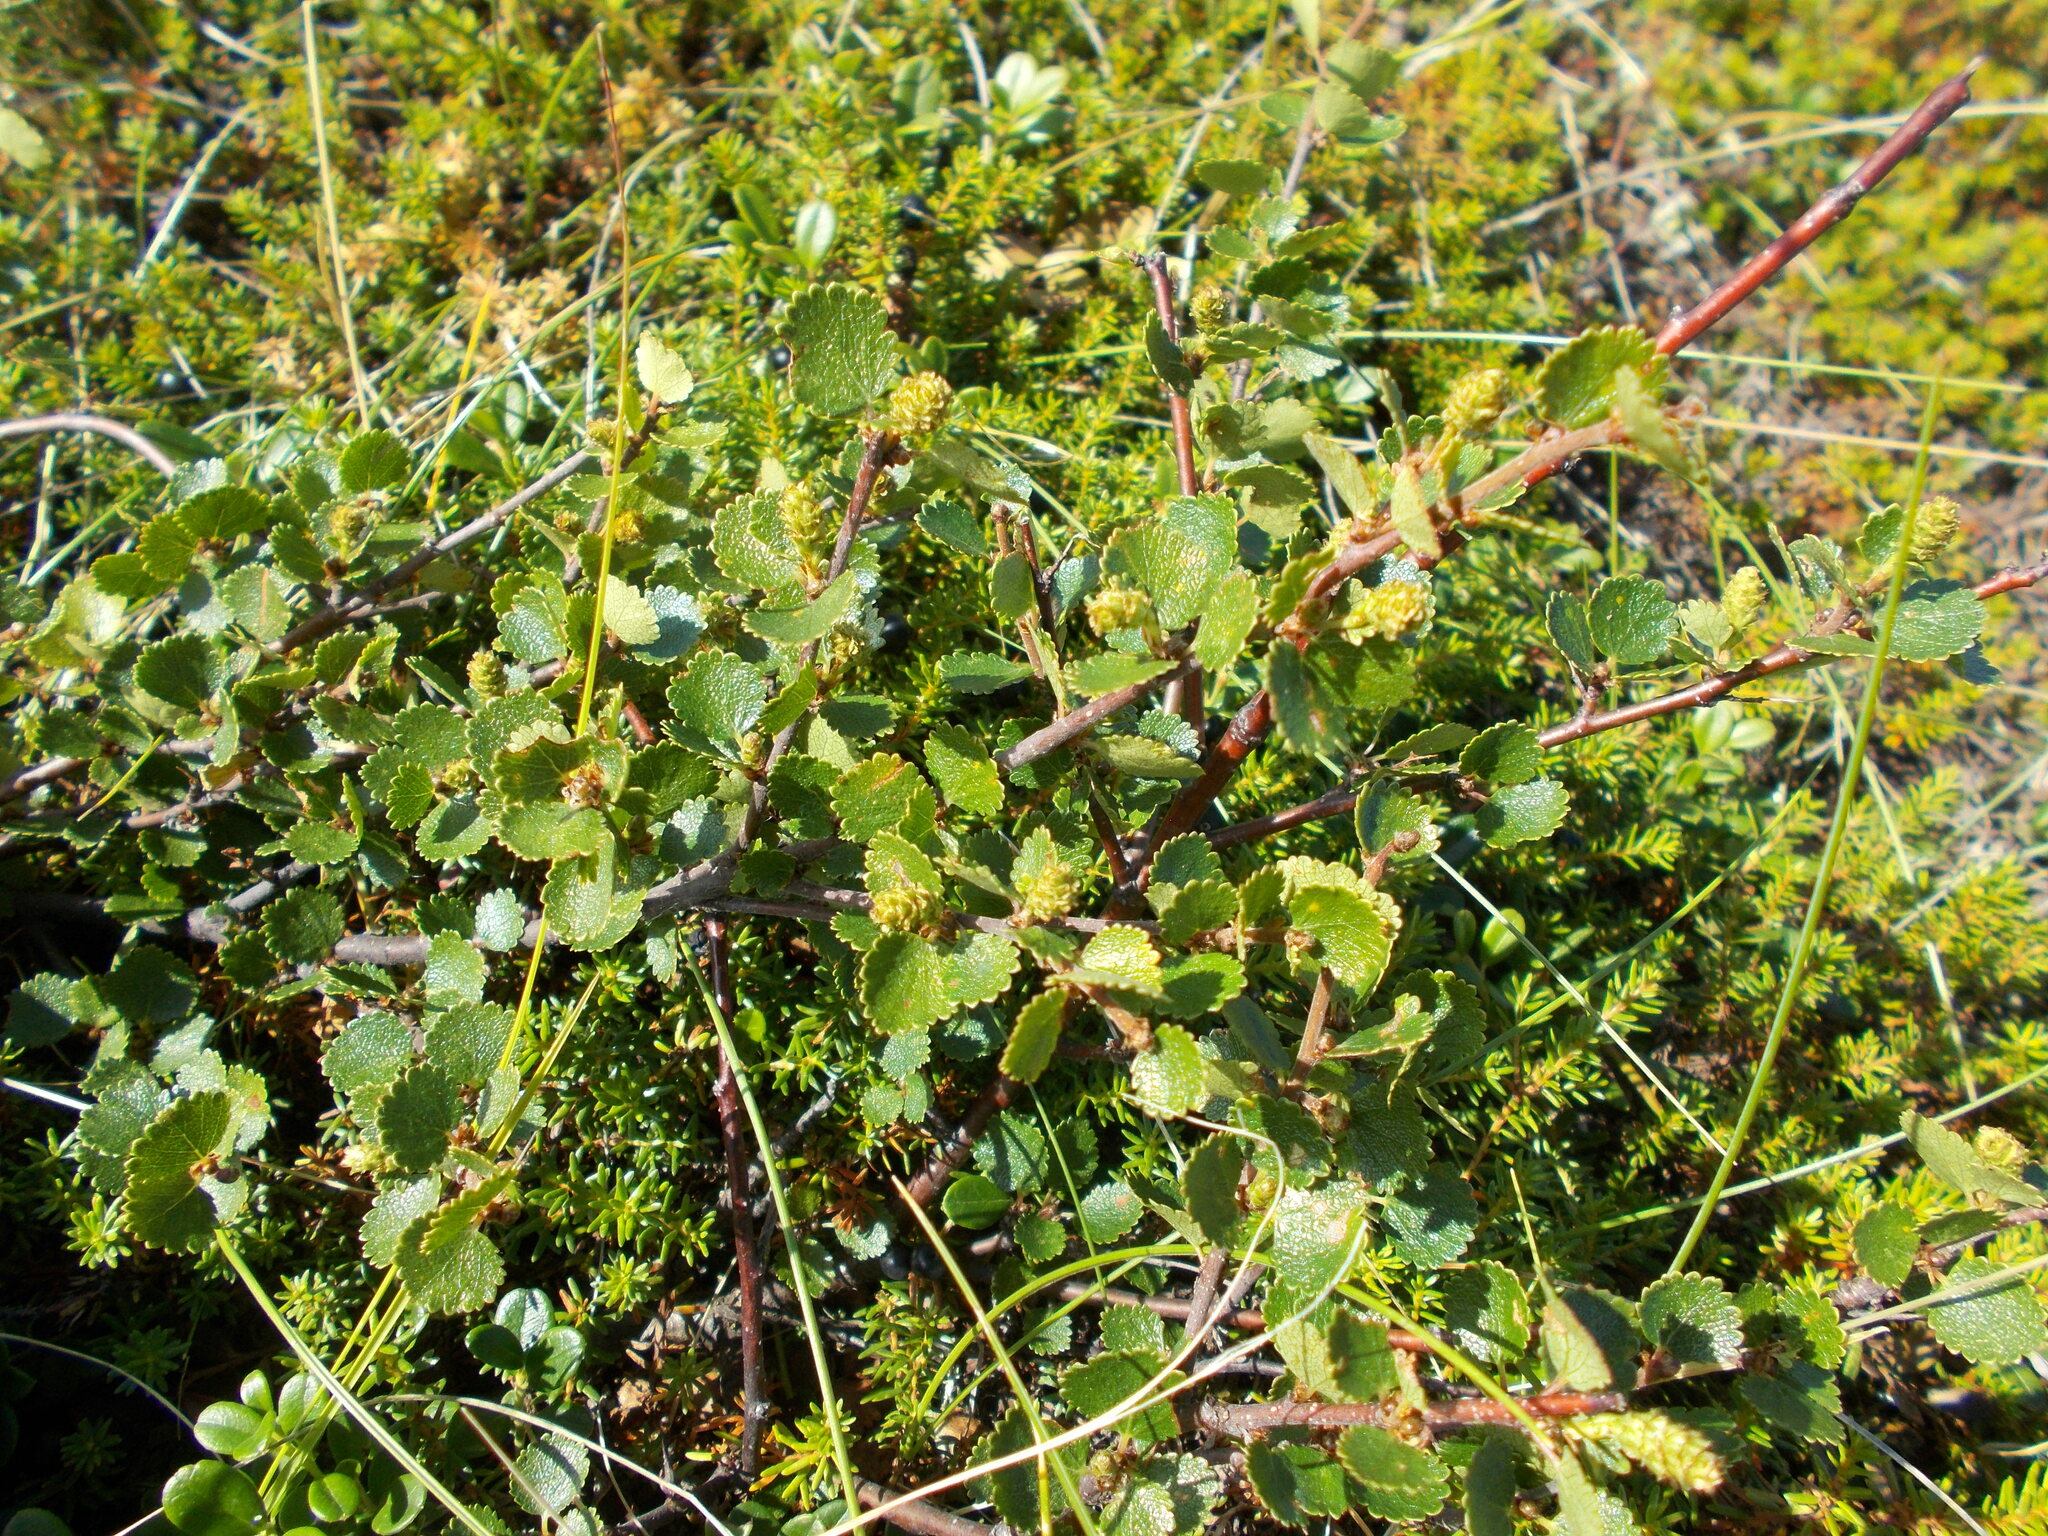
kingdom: Plantae
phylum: Tracheophyta
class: Magnoliopsida
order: Fagales
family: Betulaceae
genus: Betula
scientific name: Betula nana
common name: Arctic dwarf birch
